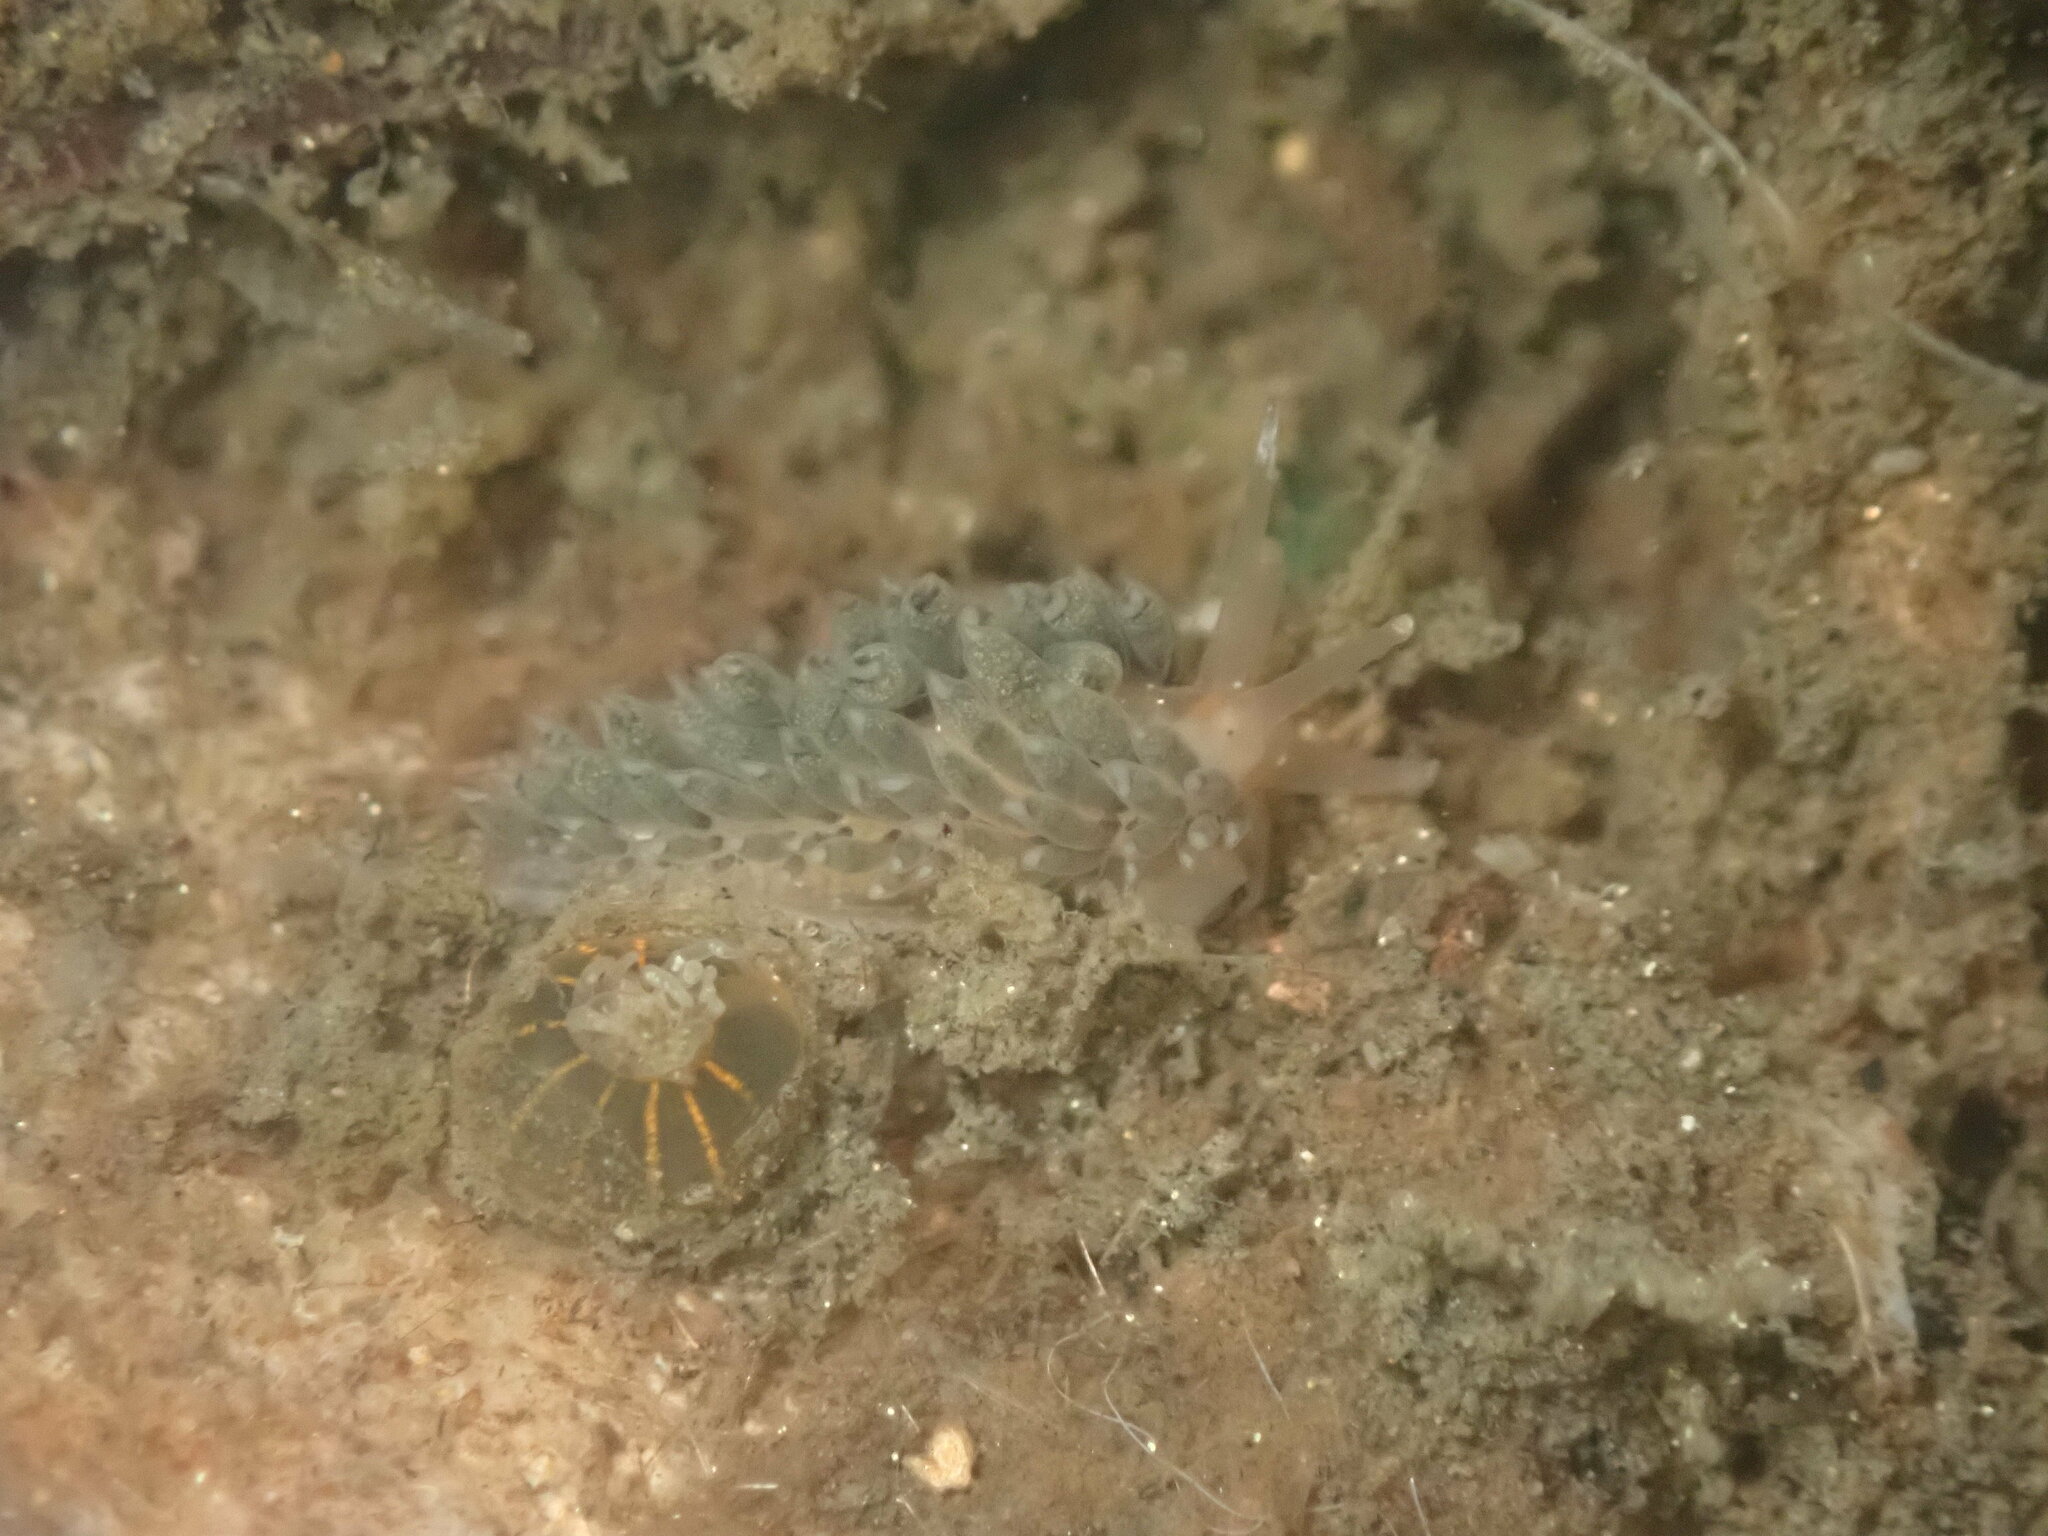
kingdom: Animalia
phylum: Mollusca
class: Gastropoda
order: Nudibranchia
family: Facelinidae
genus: Emarcusia
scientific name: Emarcusia morroensis
